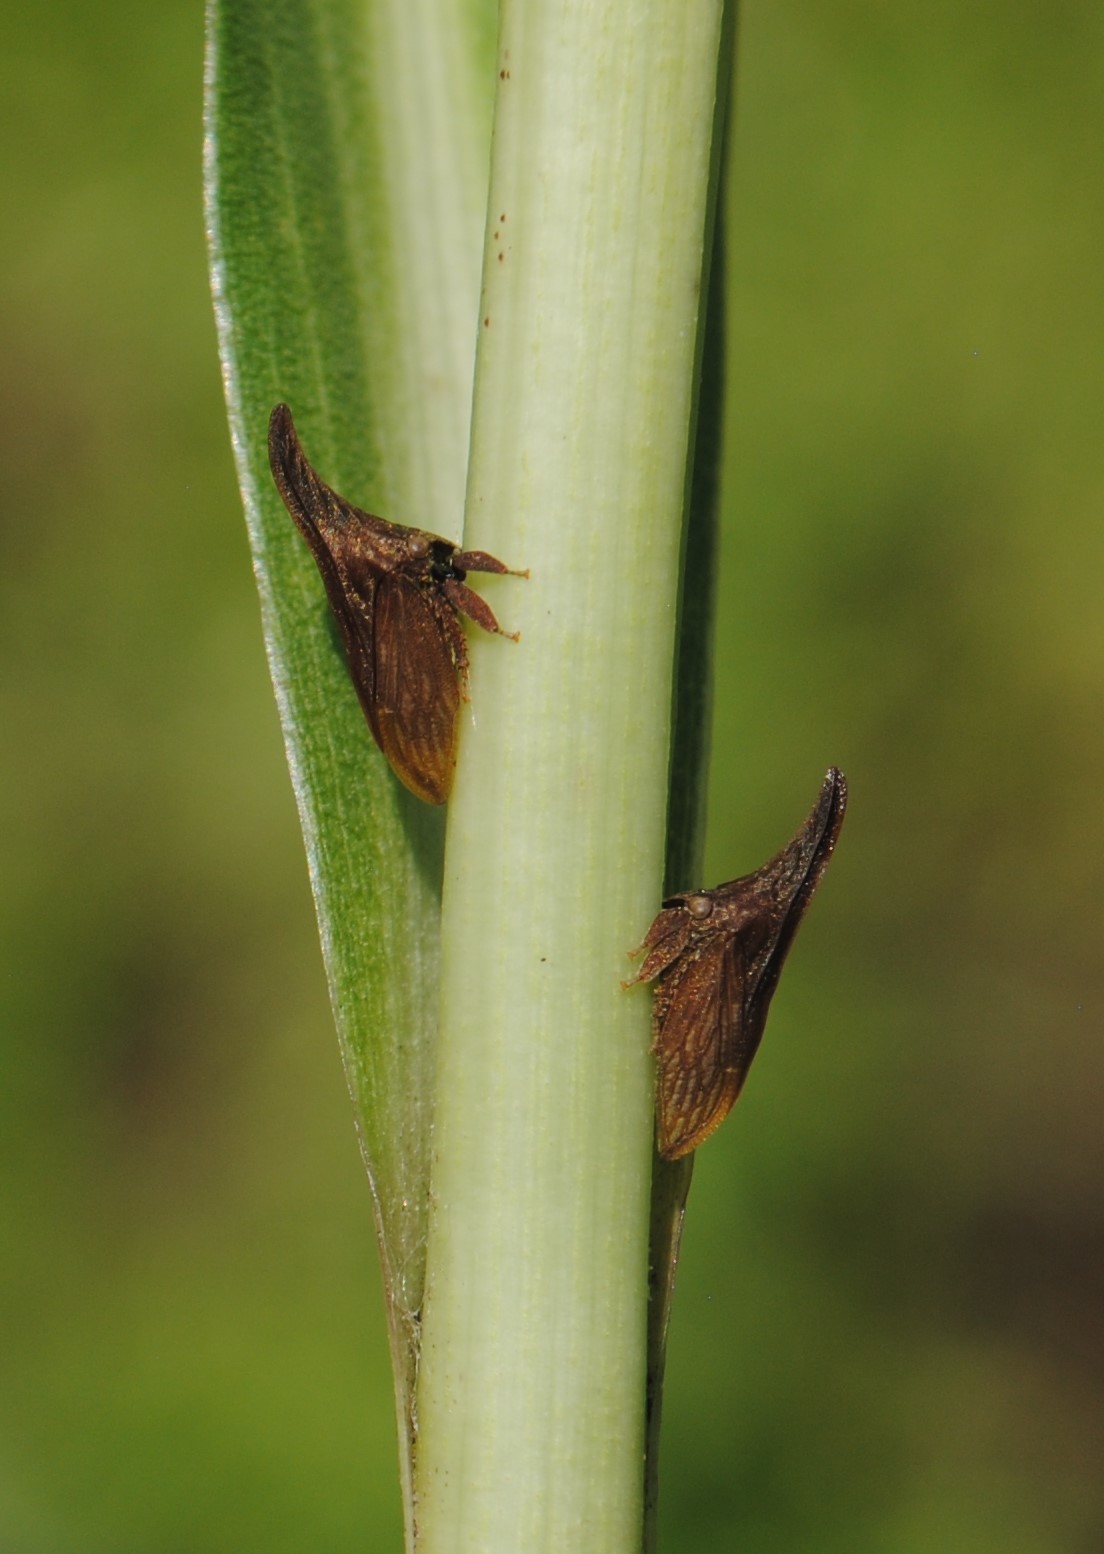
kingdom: Animalia
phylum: Arthropoda
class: Insecta
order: Hemiptera
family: Membracidae
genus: Enchenopa
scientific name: Enchenopa latipes
